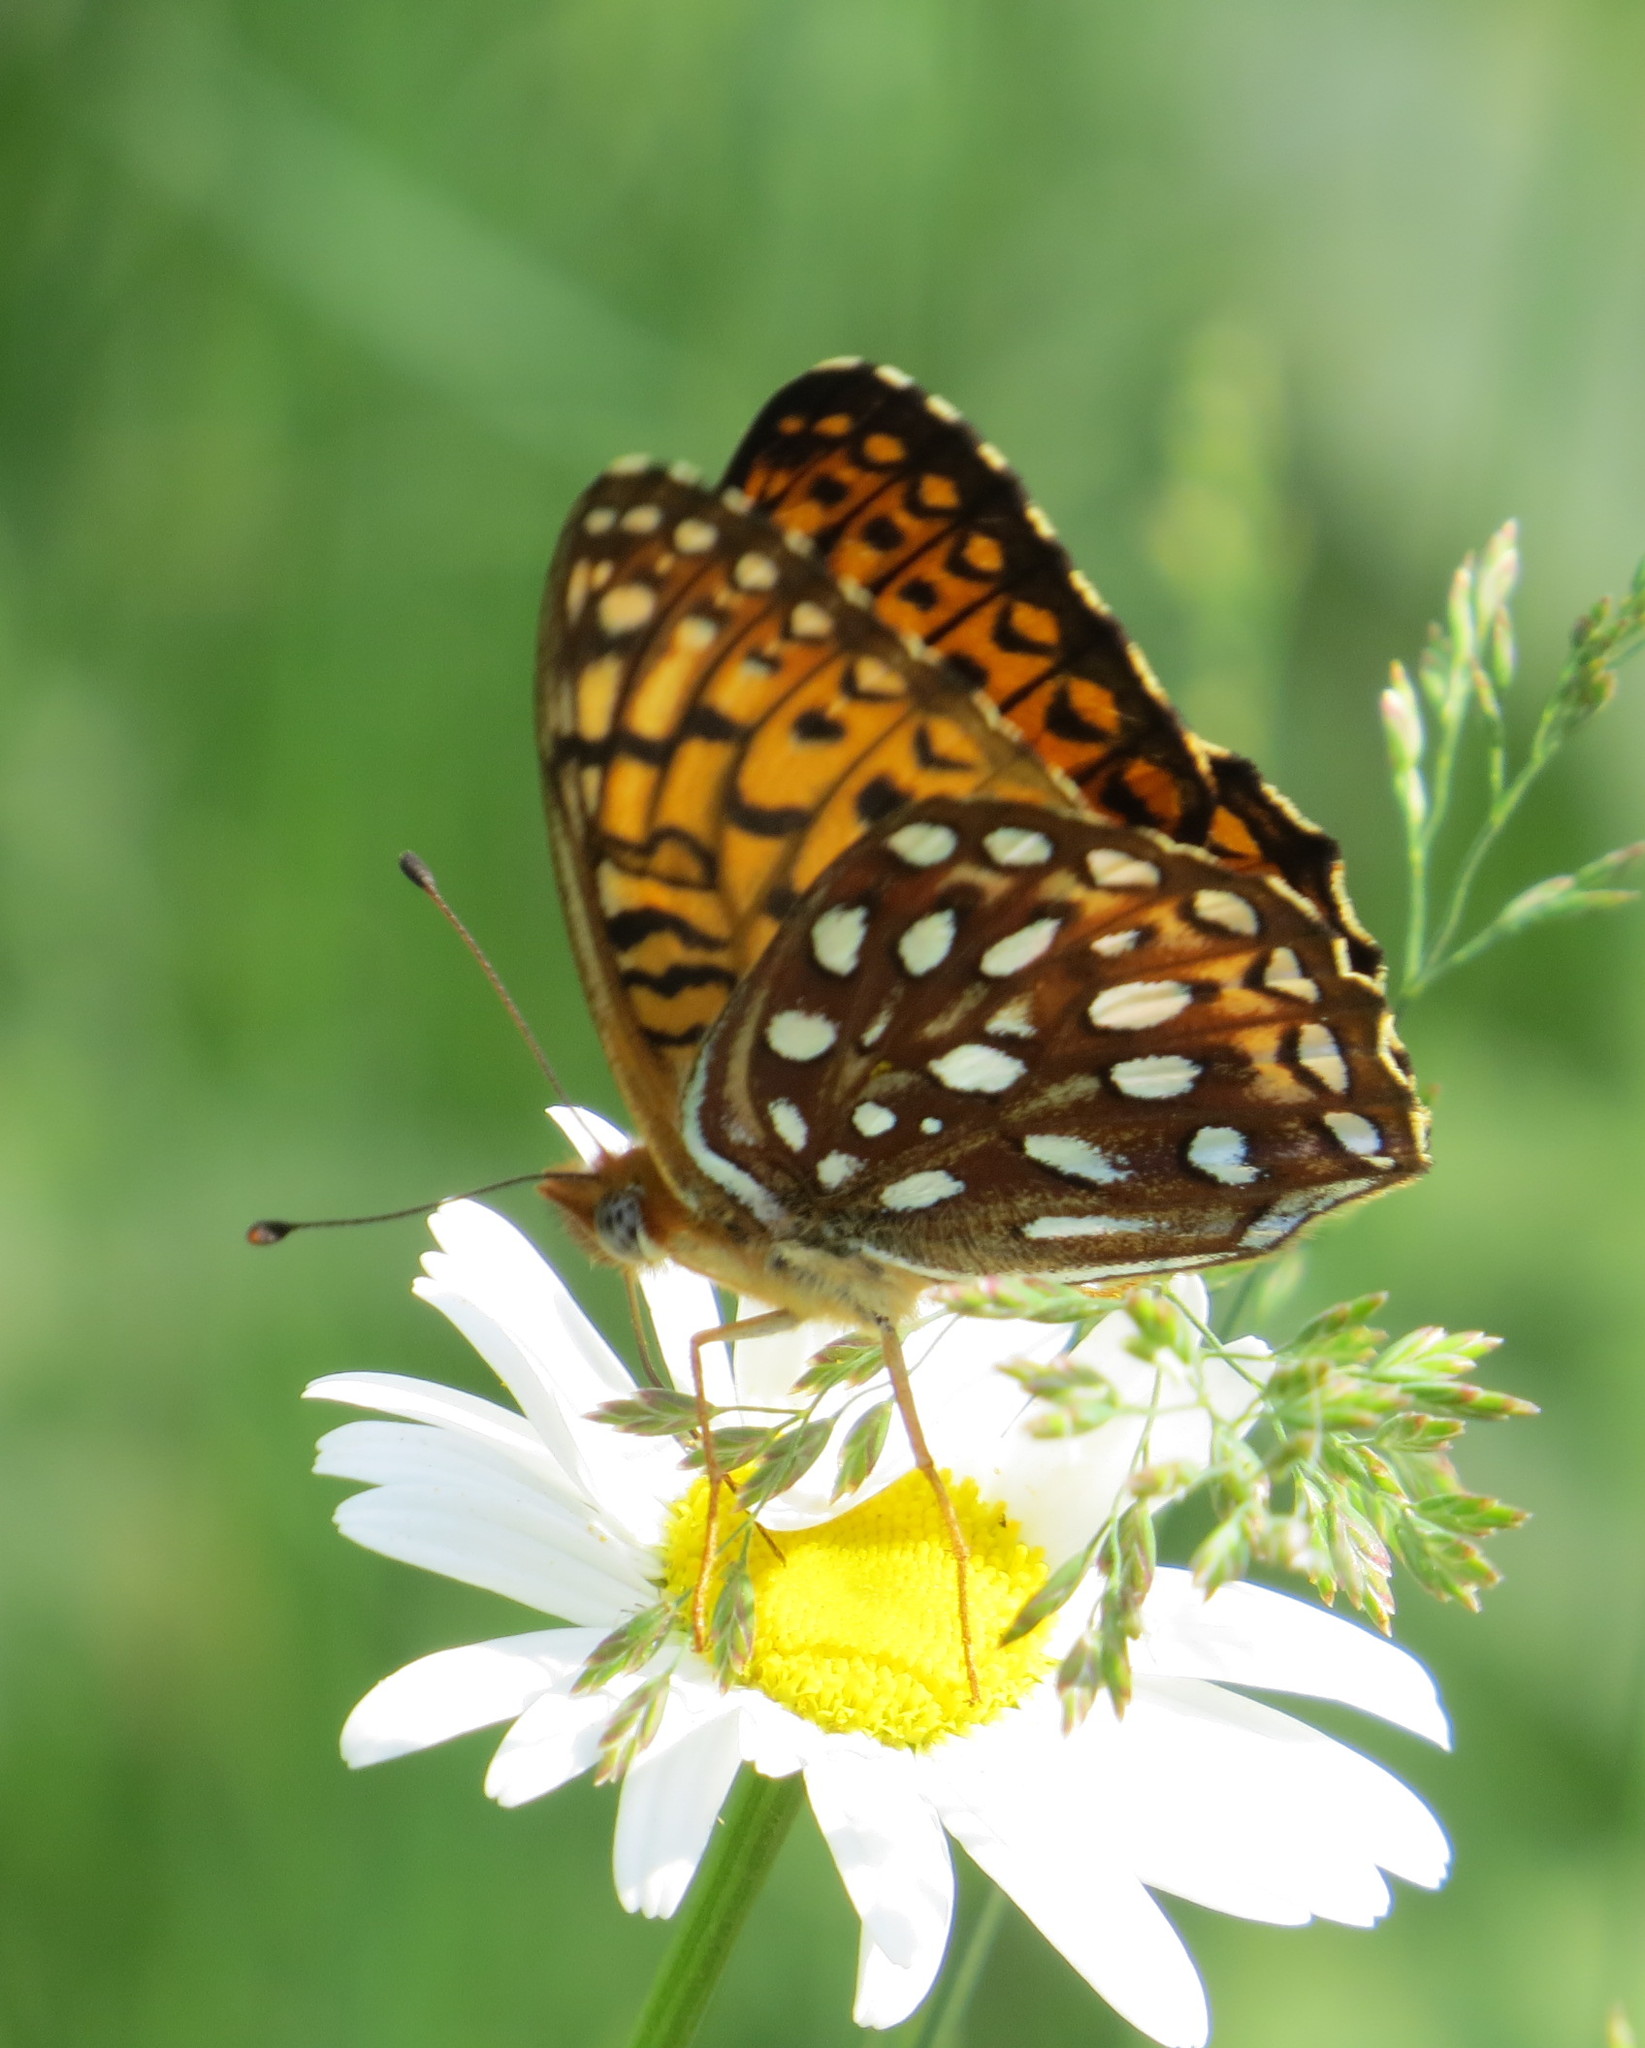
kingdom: Animalia
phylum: Arthropoda
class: Insecta
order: Lepidoptera
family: Nymphalidae
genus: Speyeria
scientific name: Speyeria atlantis
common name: Atlantis fritillary
